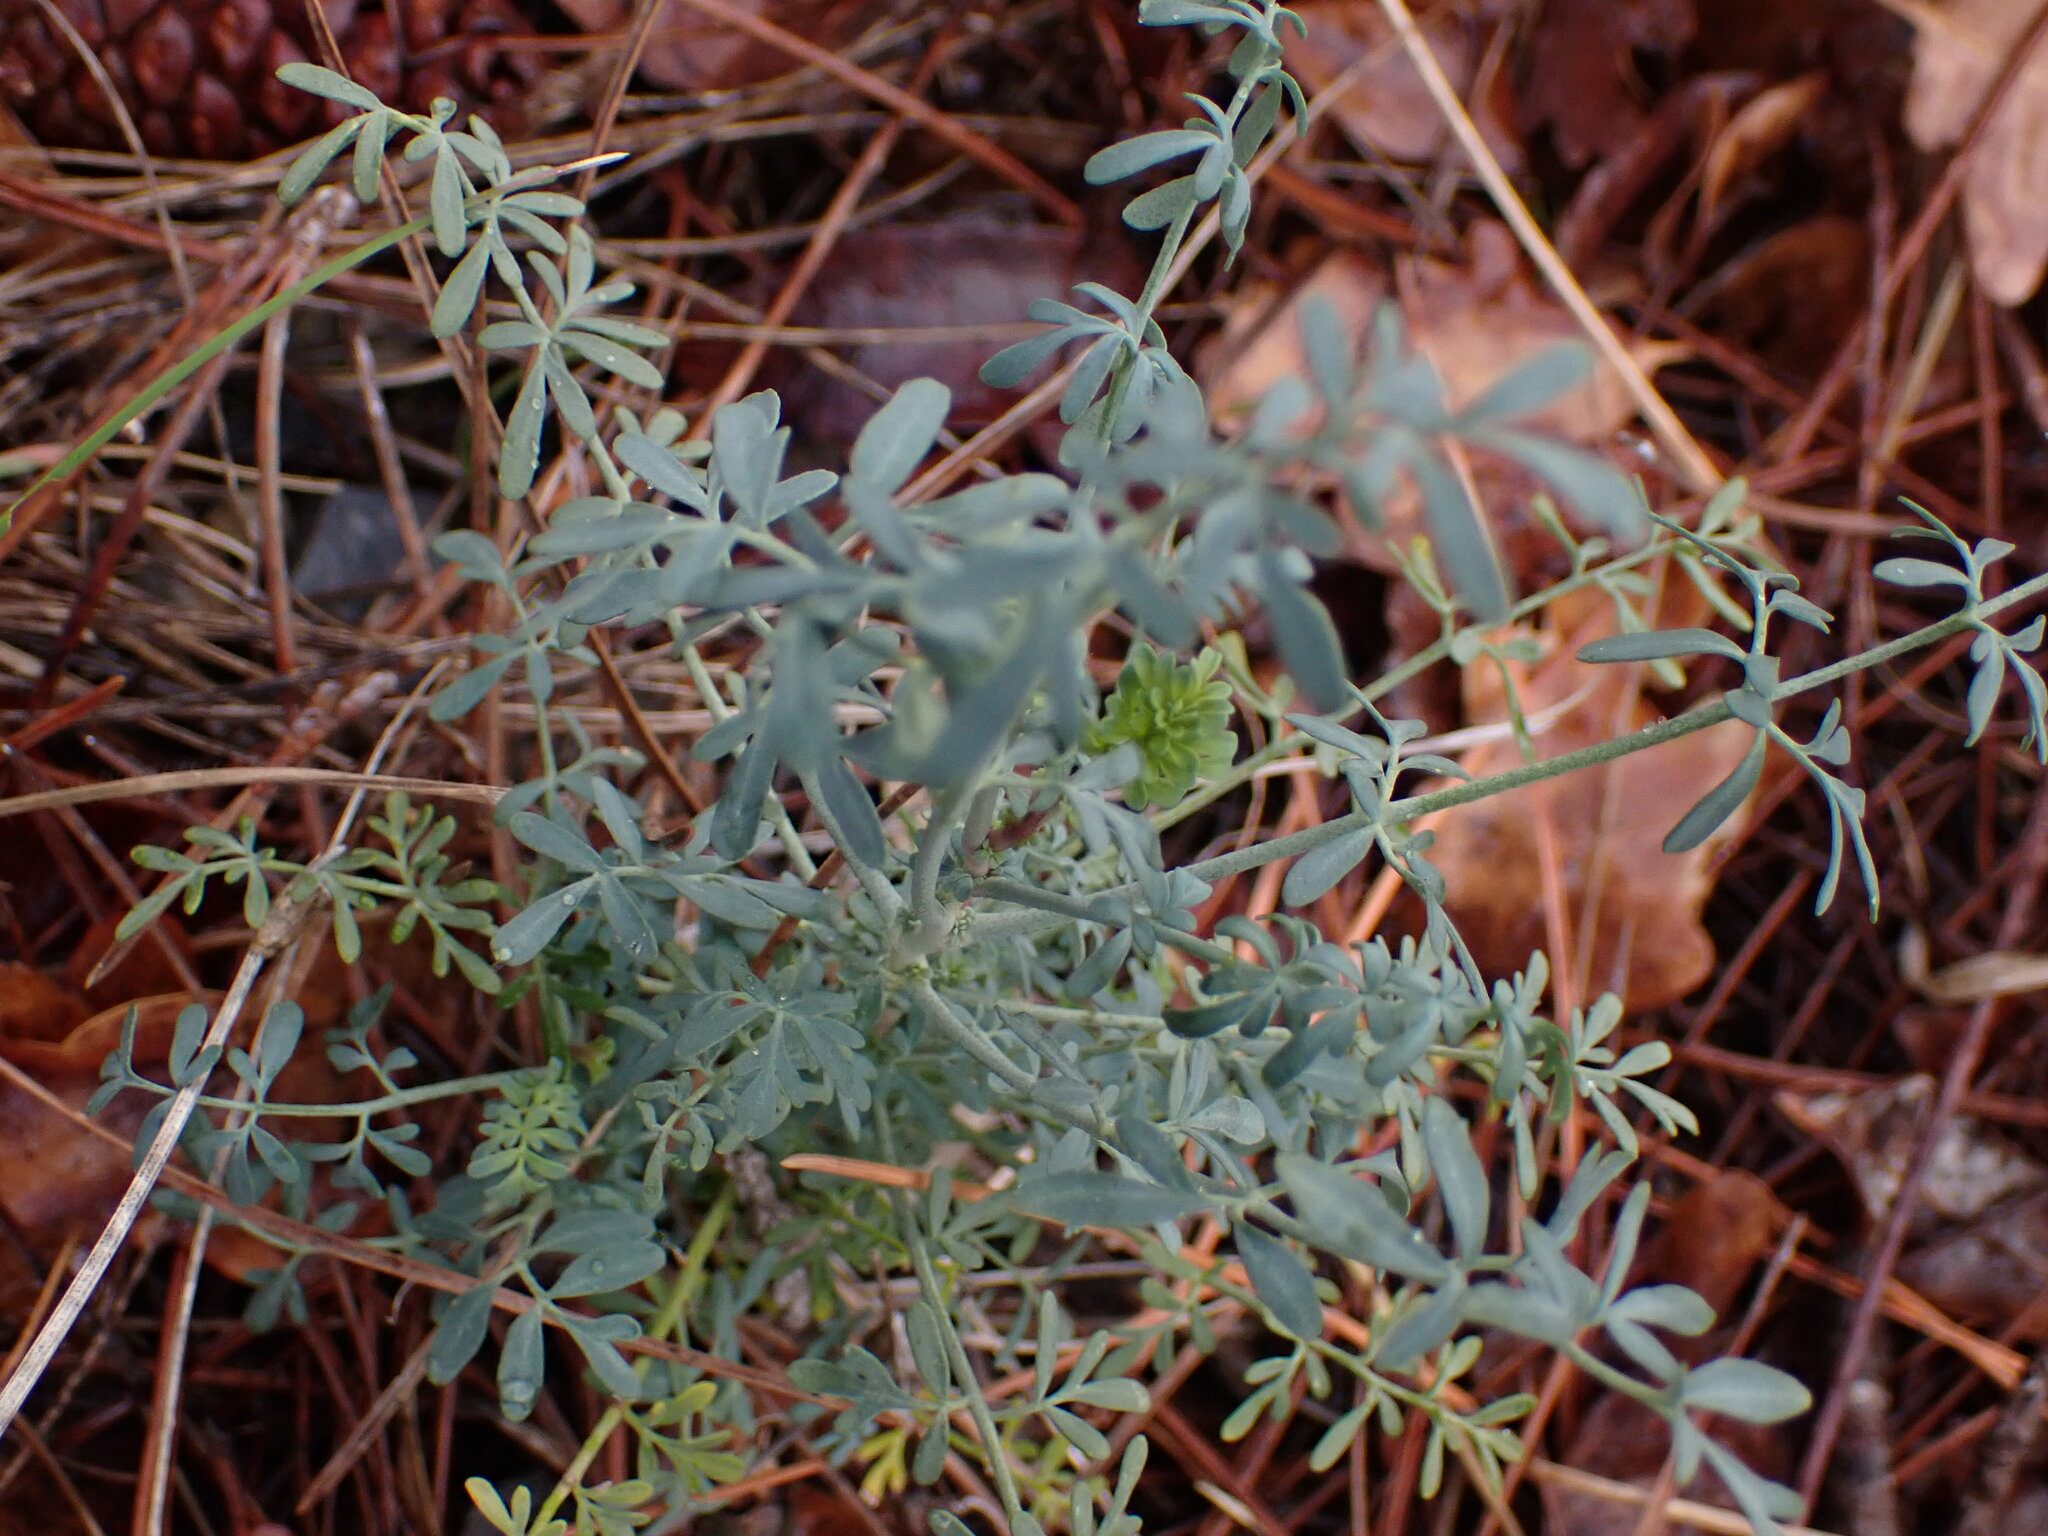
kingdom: Plantae
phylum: Tracheophyta
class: Magnoliopsida
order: Sapindales
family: Rutaceae
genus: Ruta
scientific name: Ruta angustifolia
